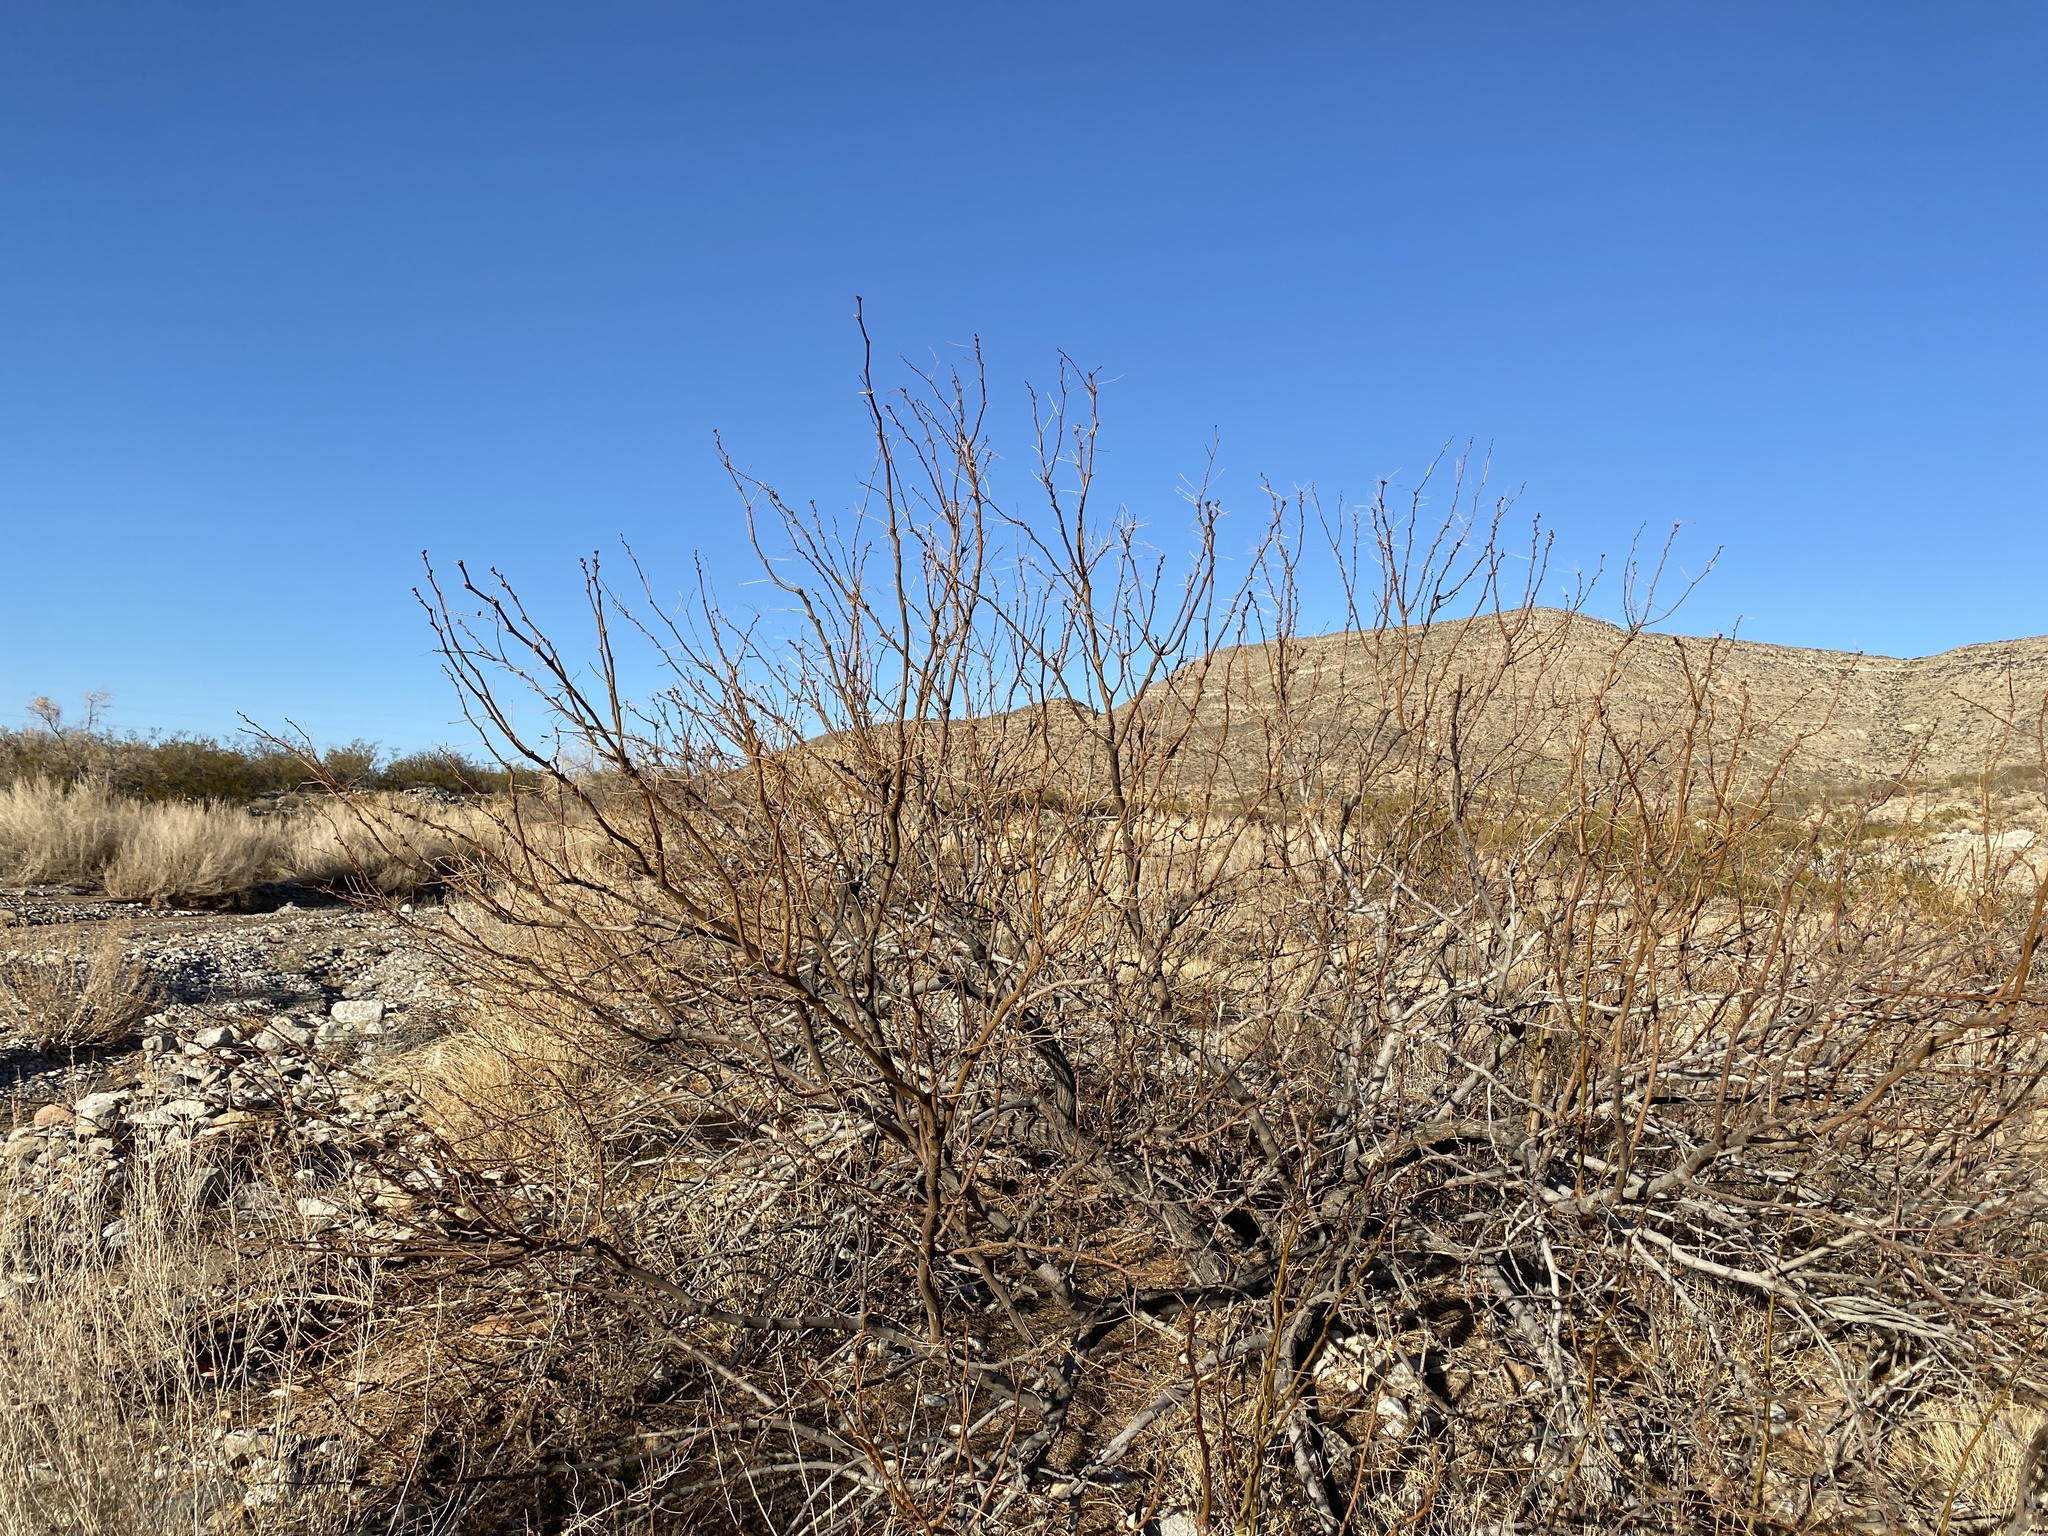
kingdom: Plantae
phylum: Tracheophyta
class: Magnoliopsida
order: Fabales
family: Fabaceae
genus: Prosopis
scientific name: Prosopis glandulosa
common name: Honey mesquite
